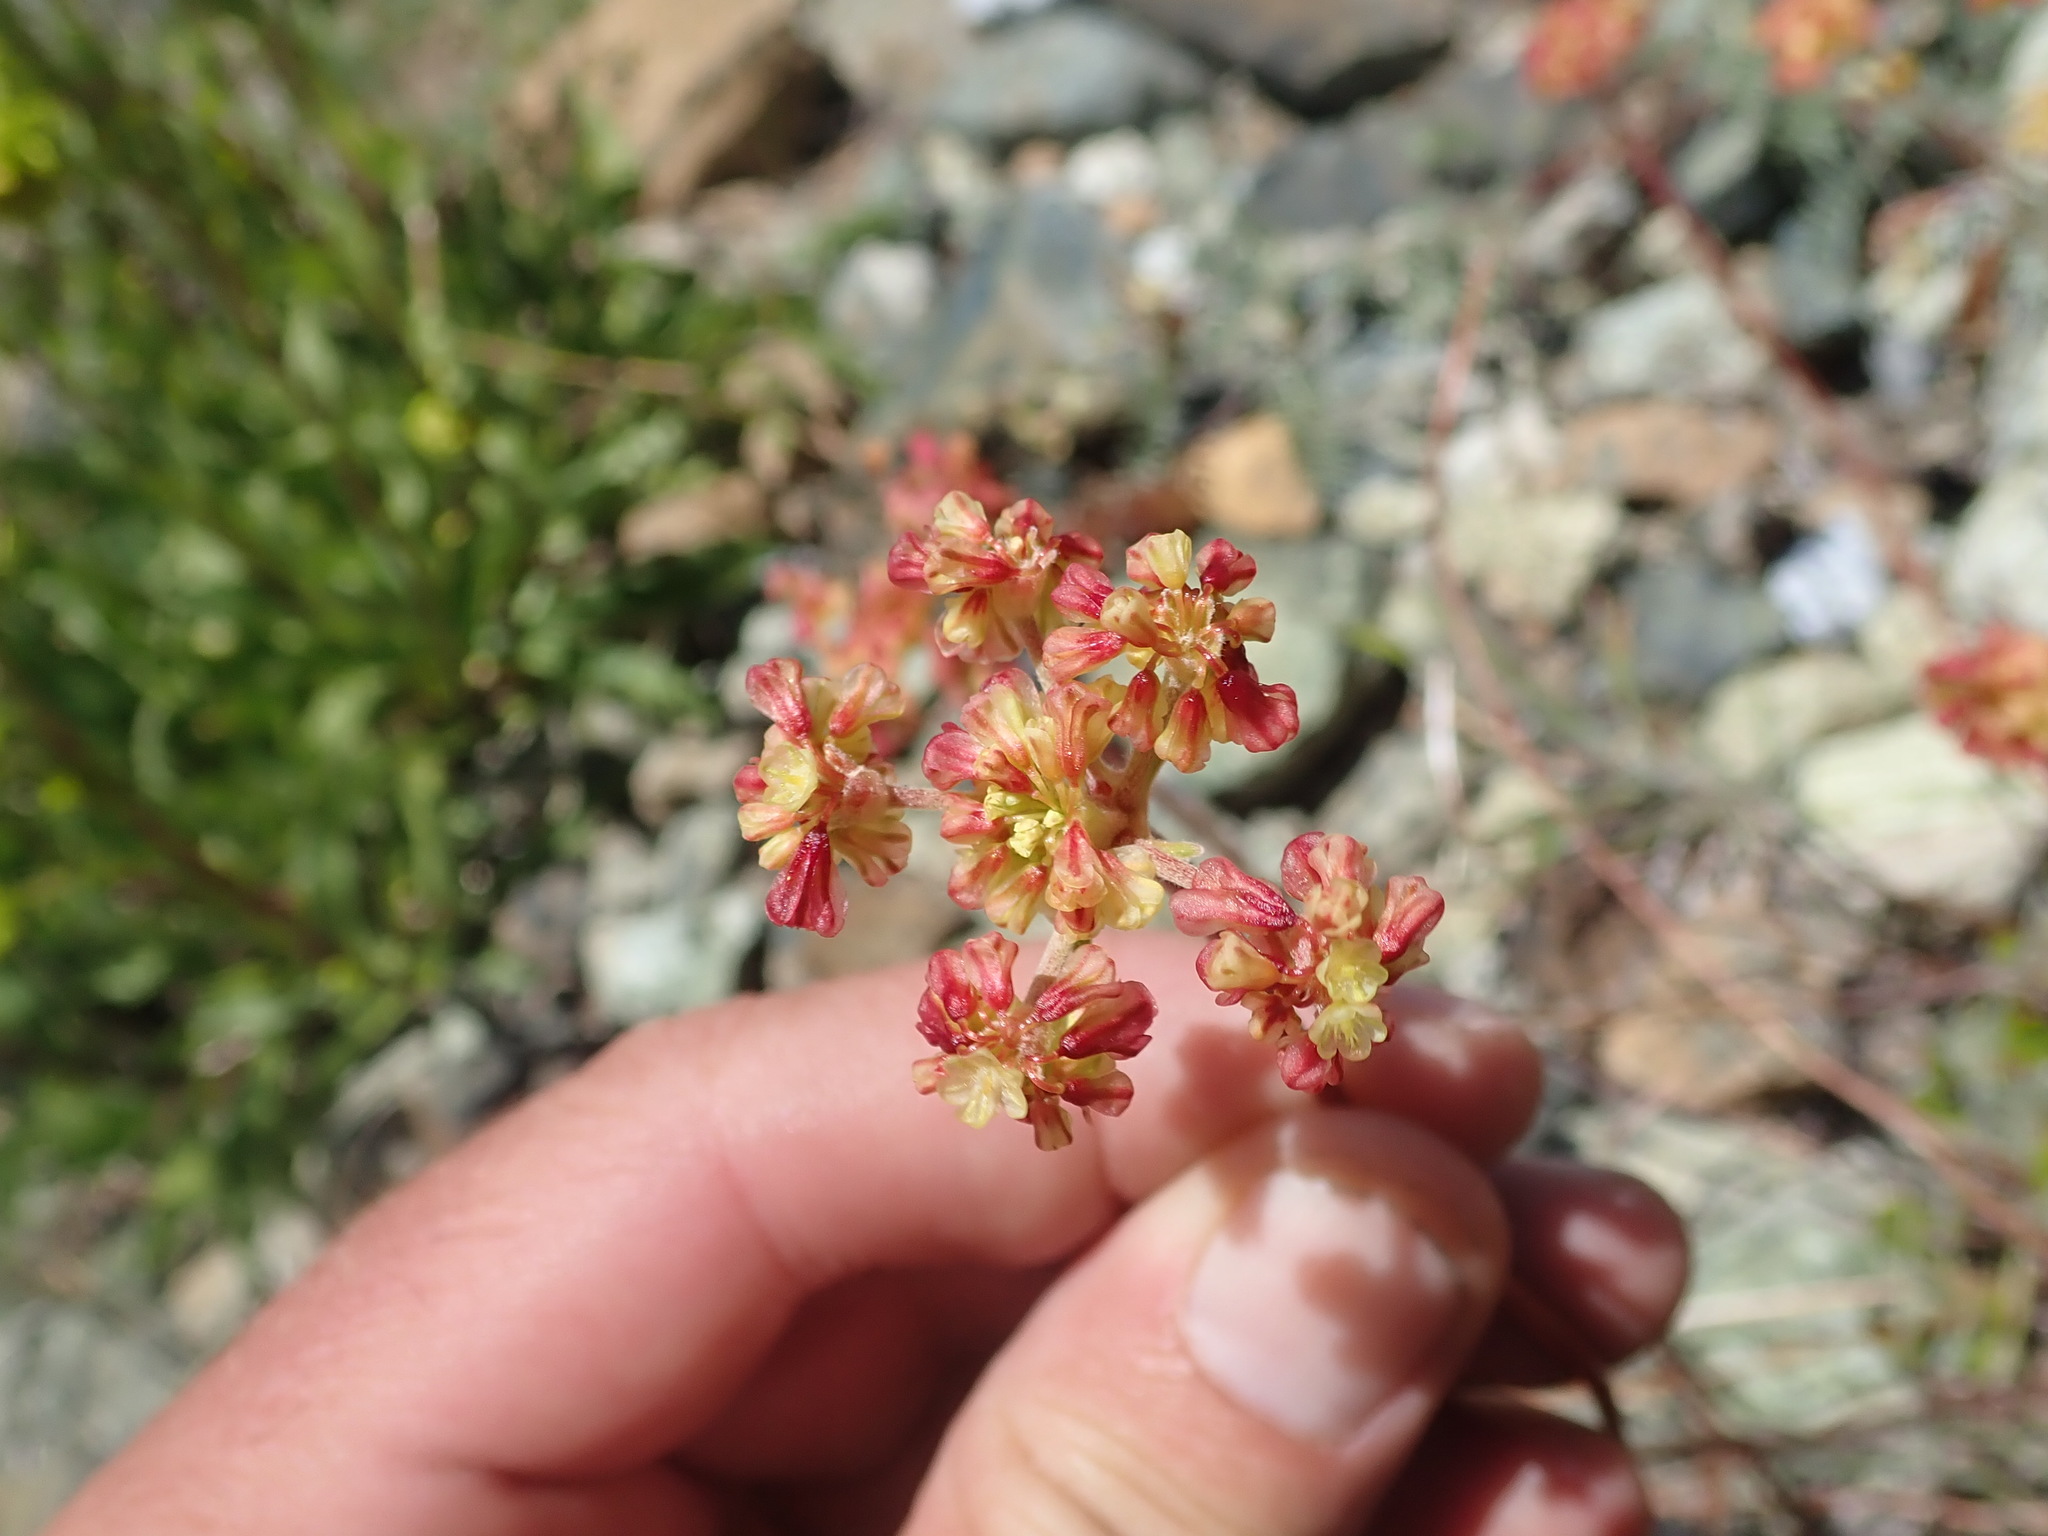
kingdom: Plantae
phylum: Tracheophyta
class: Magnoliopsida
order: Caryophyllales
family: Polygonaceae
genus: Eriogonum
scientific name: Eriogonum marifolium
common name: Marum-leaf wild buckwheat
